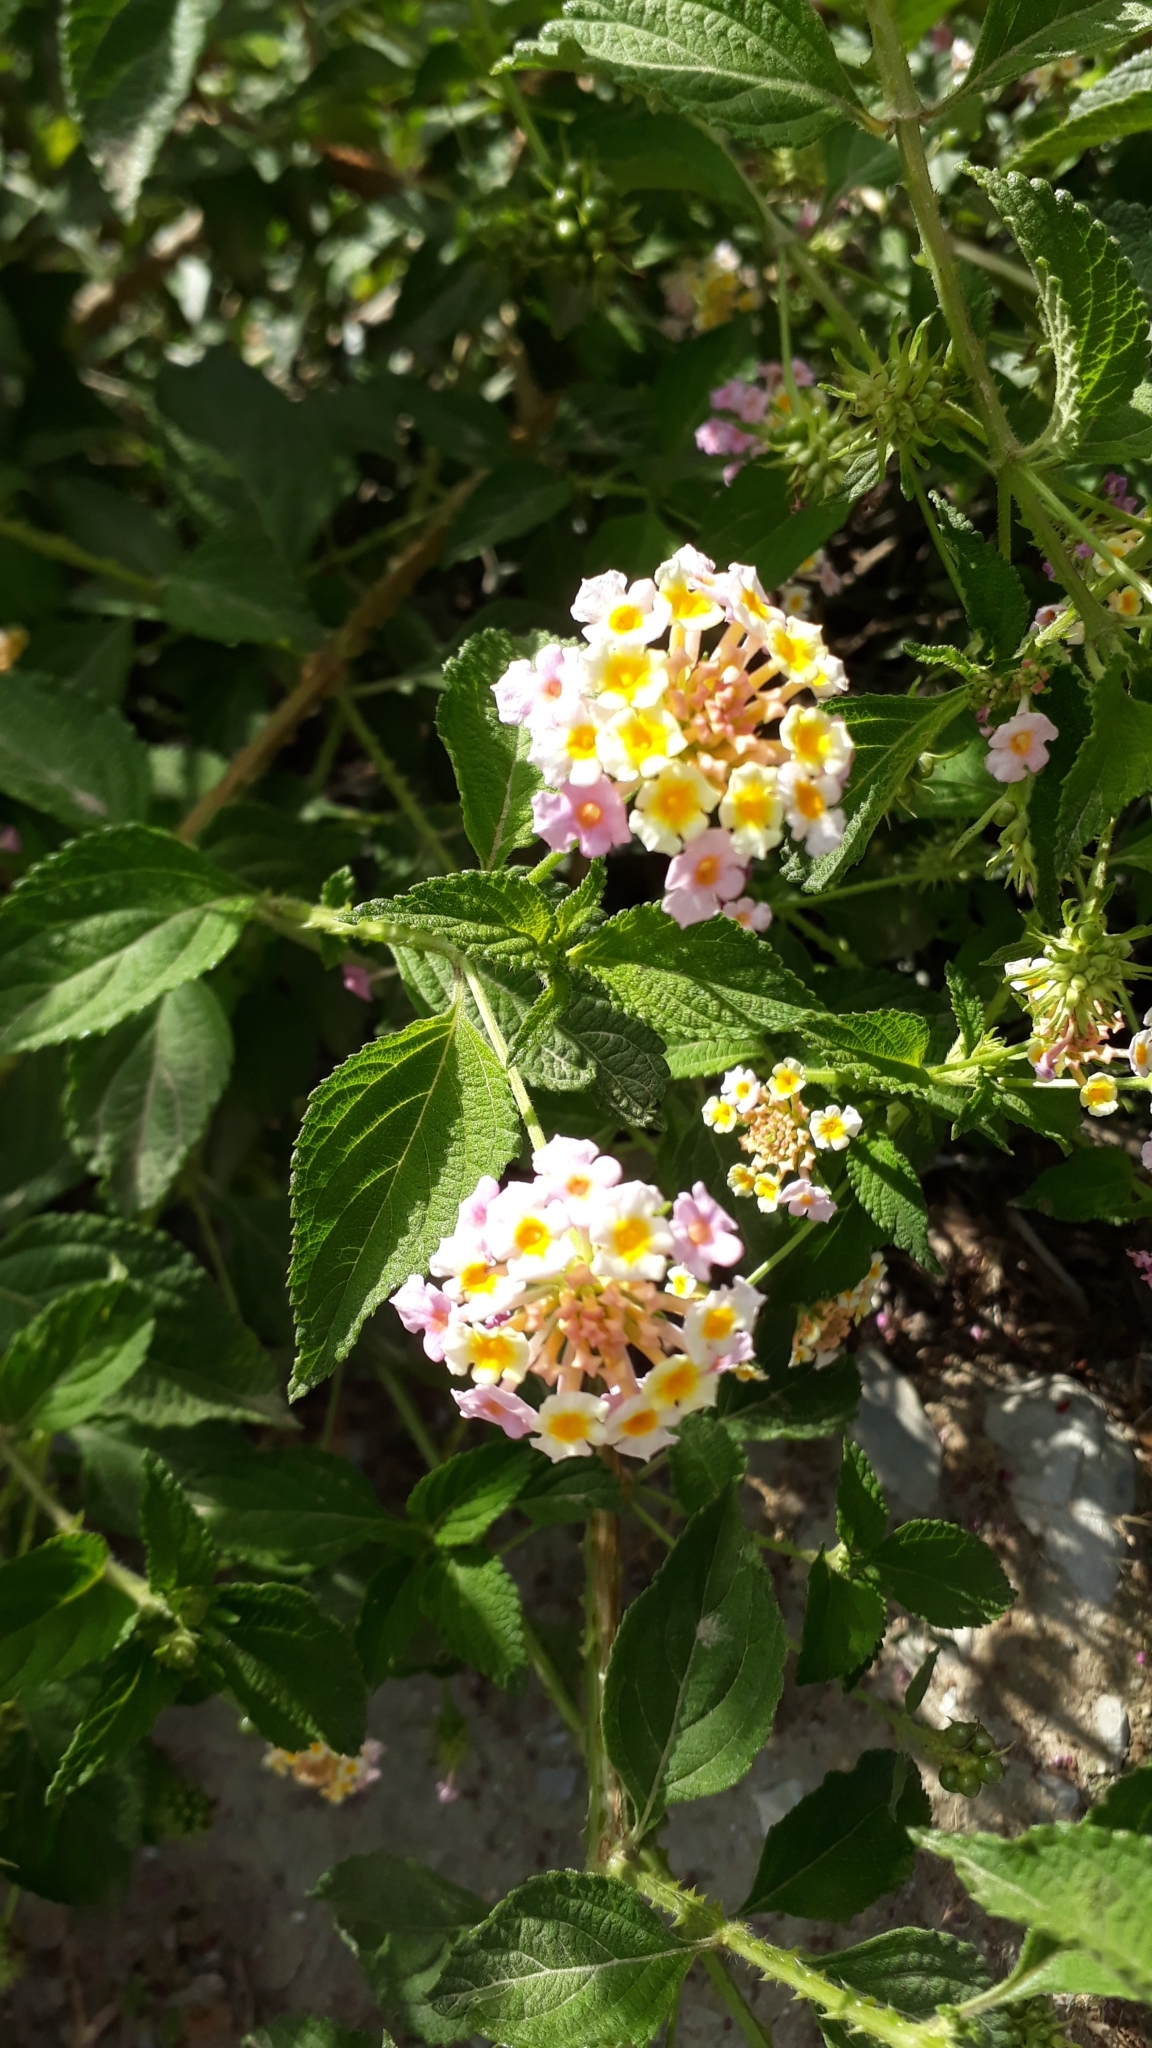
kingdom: Plantae
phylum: Tracheophyta
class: Magnoliopsida
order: Lamiales
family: Verbenaceae
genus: Lantana
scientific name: Lantana camara
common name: Lantana
